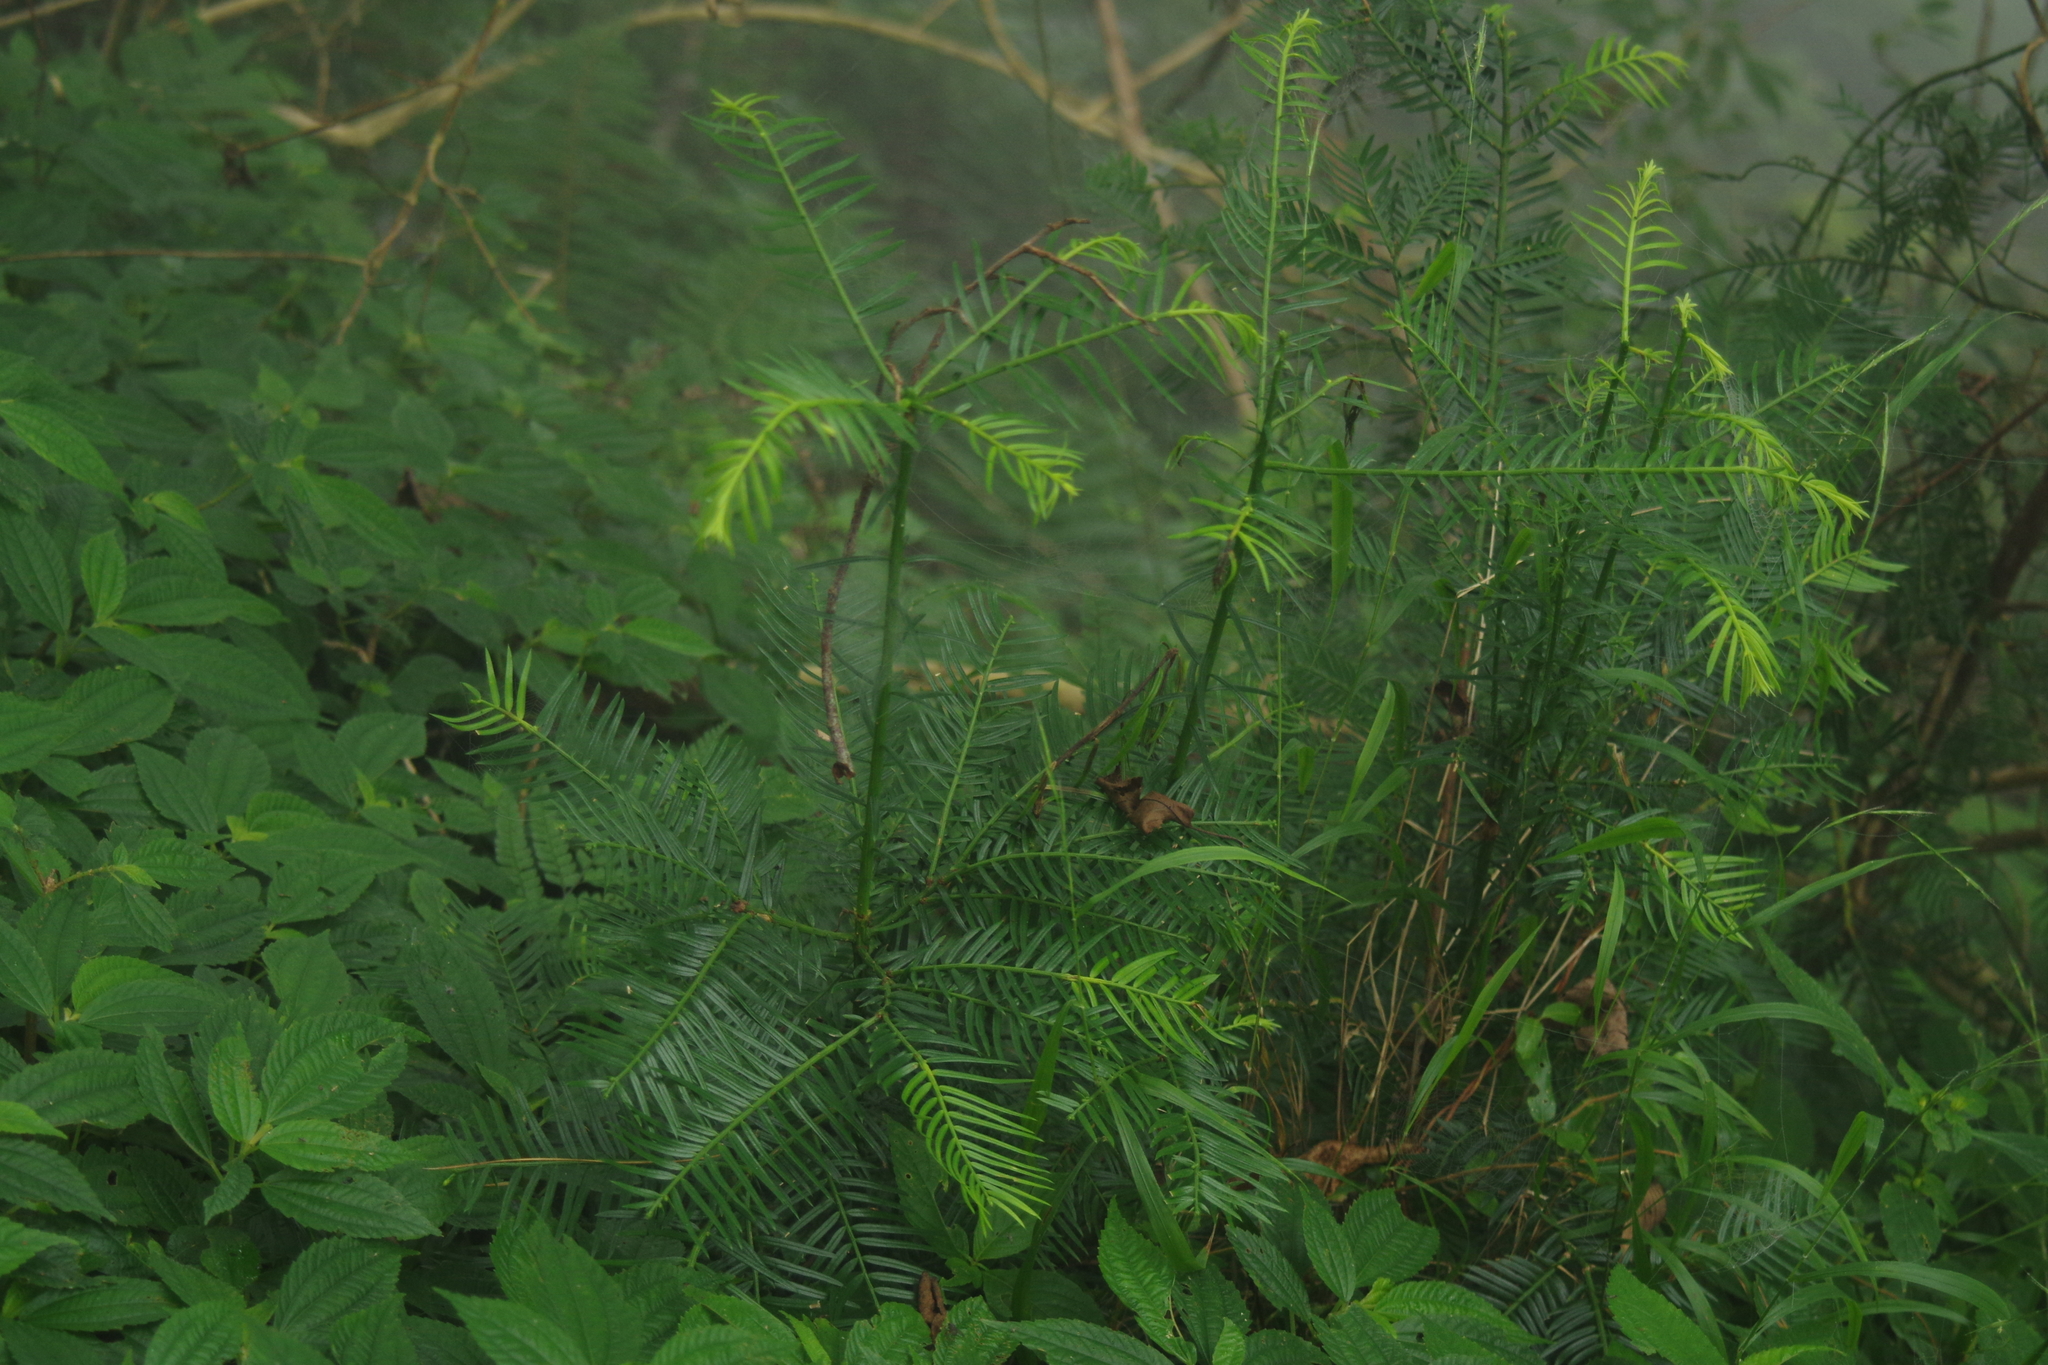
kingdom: Plantae
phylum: Tracheophyta
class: Pinopsida
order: Pinales
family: Cephalotaxaceae
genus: Cephalotaxus
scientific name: Cephalotaxus harringtonii
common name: Harrington's plum yew
